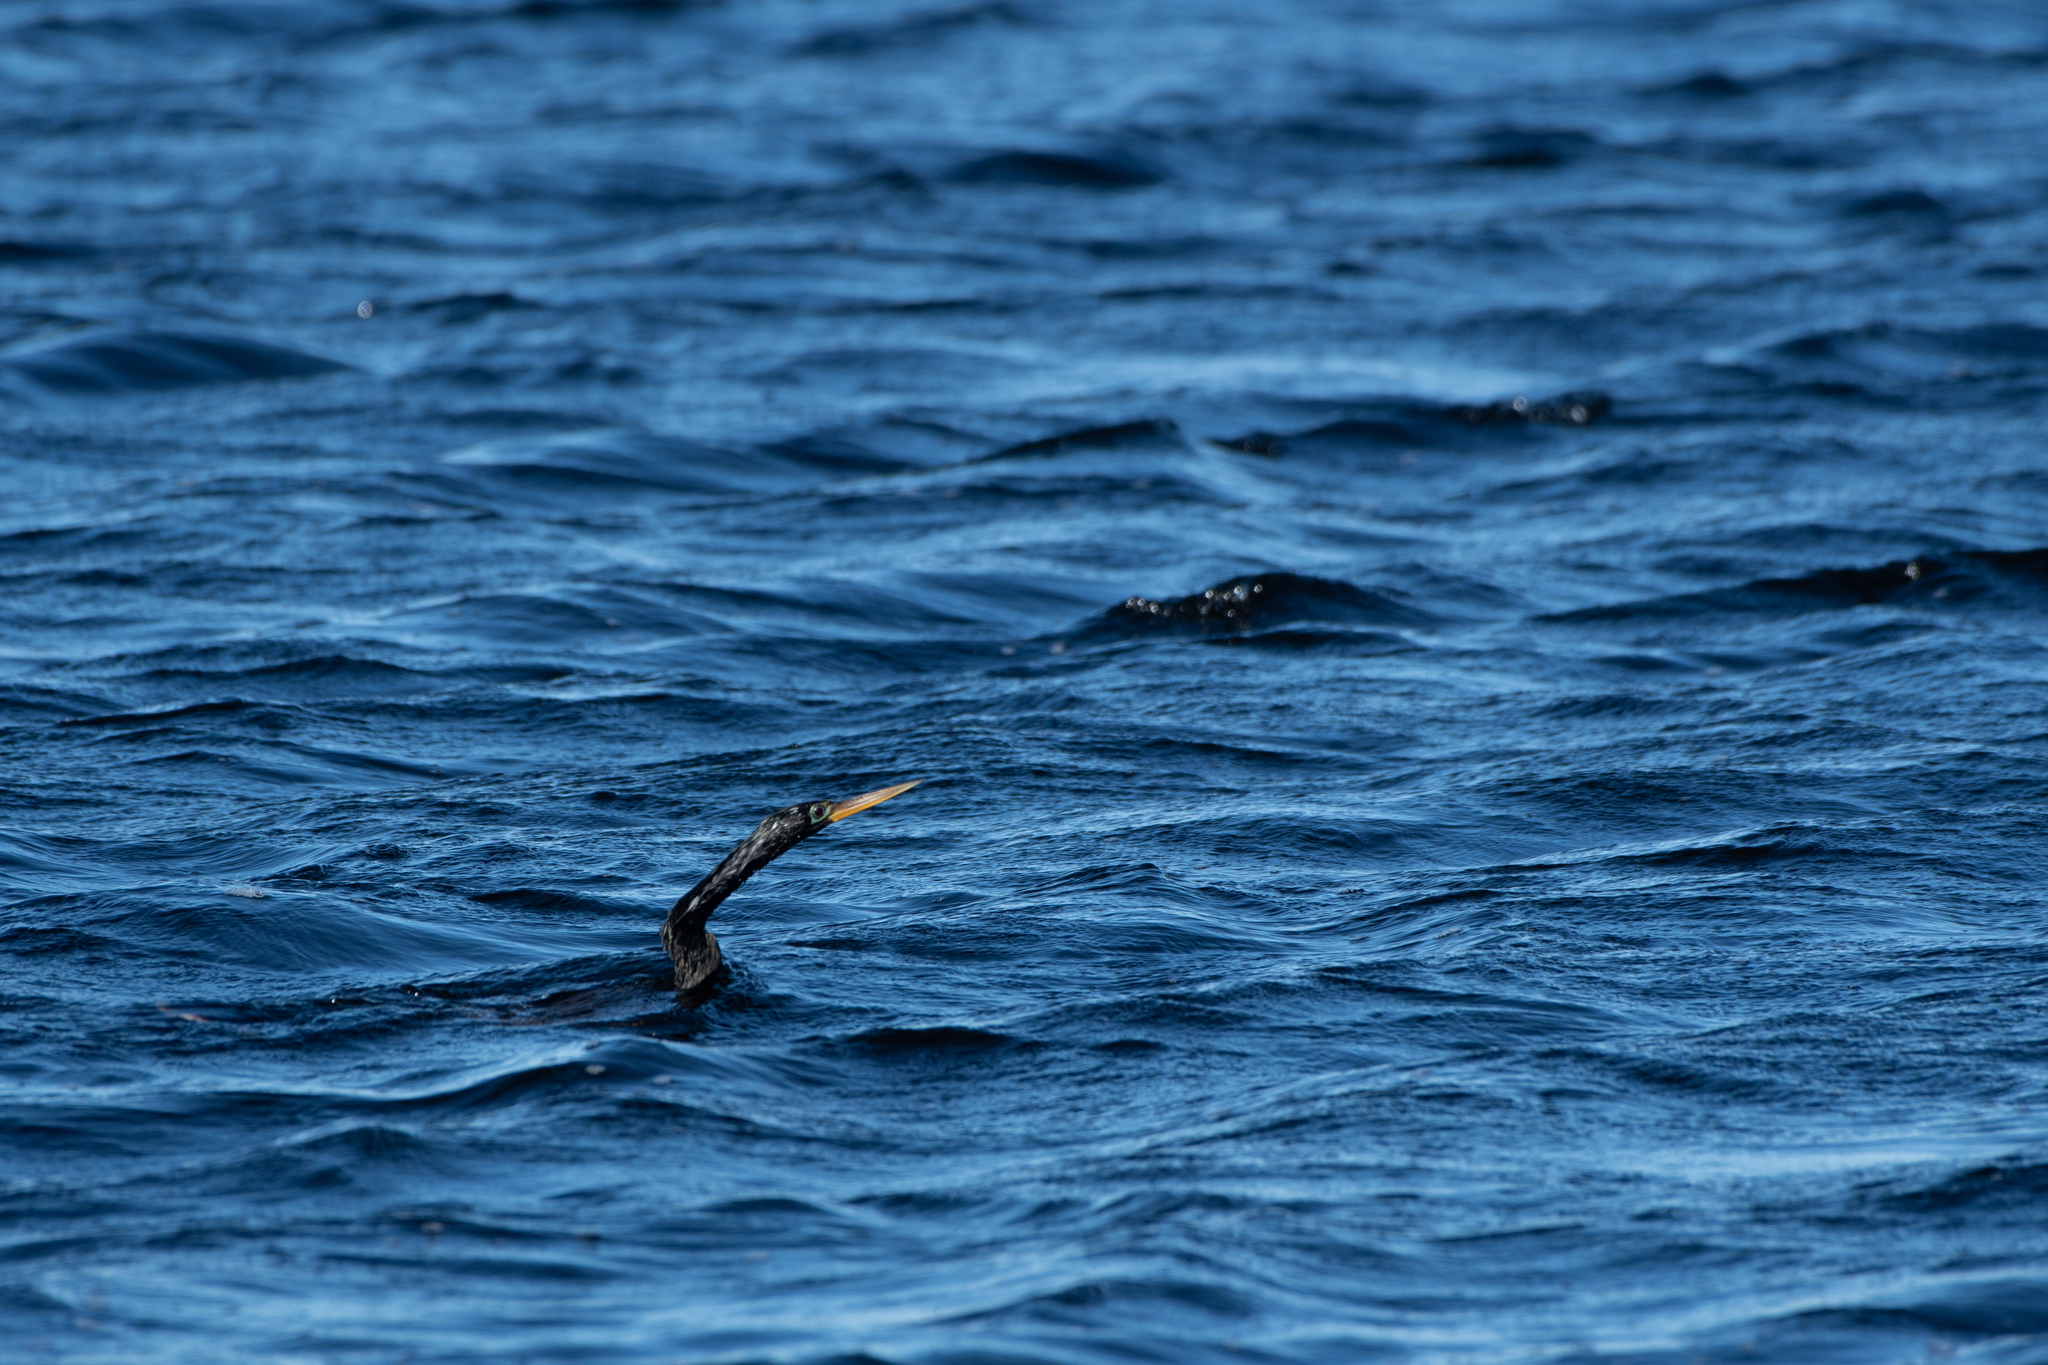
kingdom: Animalia
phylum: Chordata
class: Aves
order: Suliformes
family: Anhingidae
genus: Anhinga
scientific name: Anhinga anhinga
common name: Anhinga
